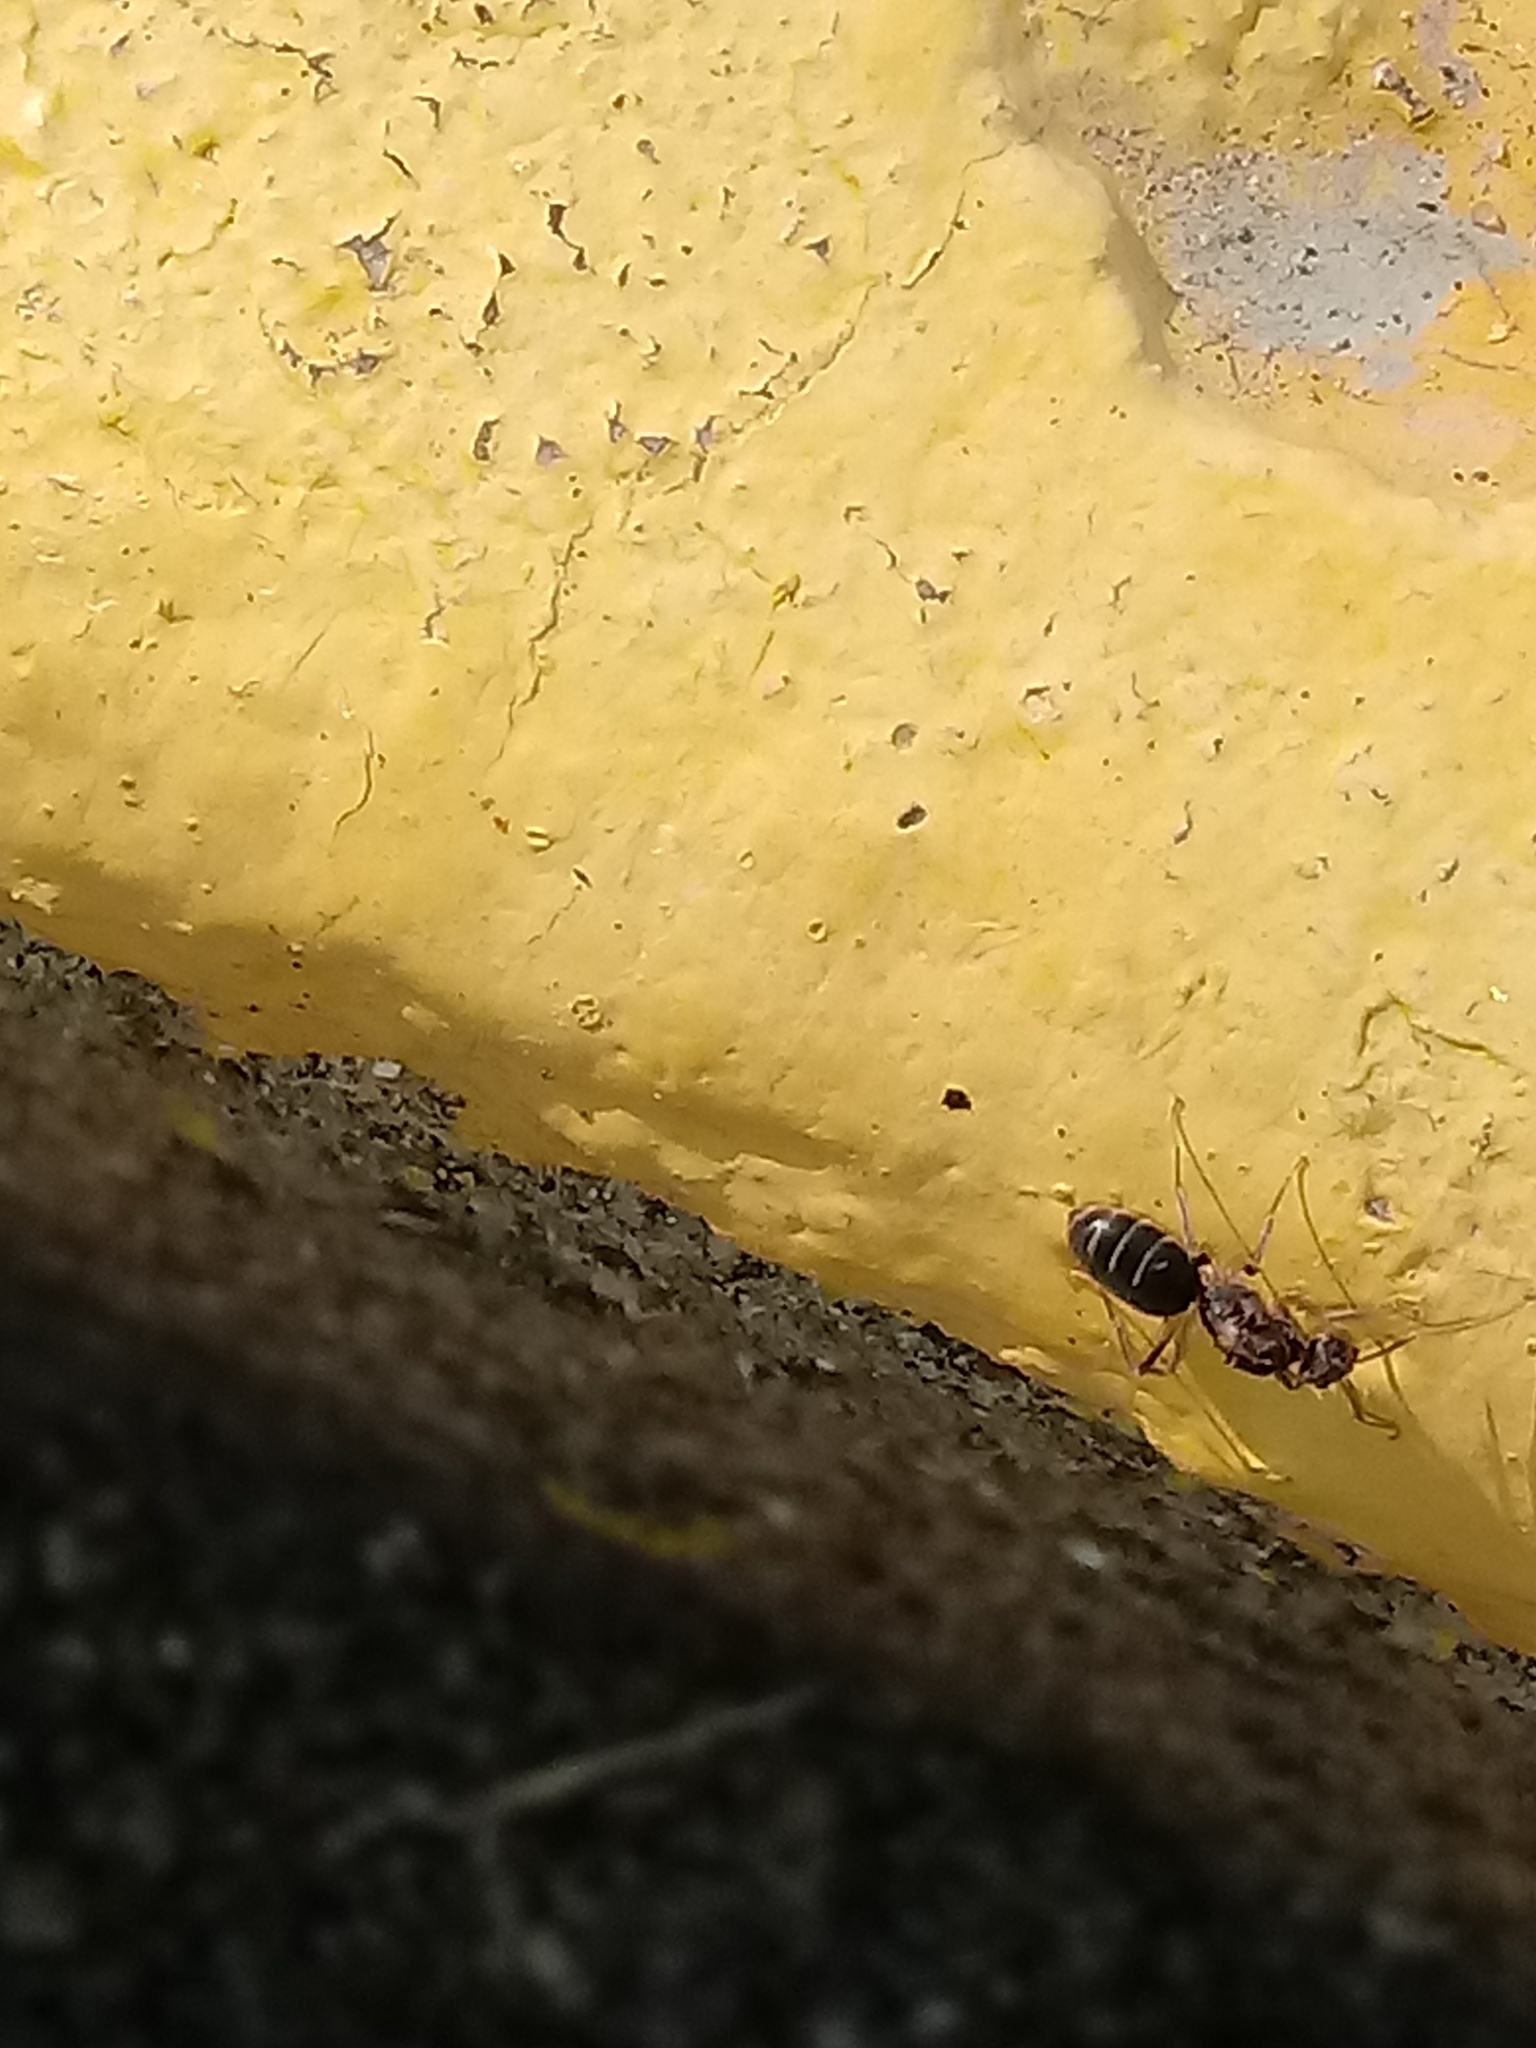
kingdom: Animalia
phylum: Arthropoda
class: Insecta
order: Hymenoptera
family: Formicidae
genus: Paratrechina
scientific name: Paratrechina longicornis
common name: Longhorned crazy ant
